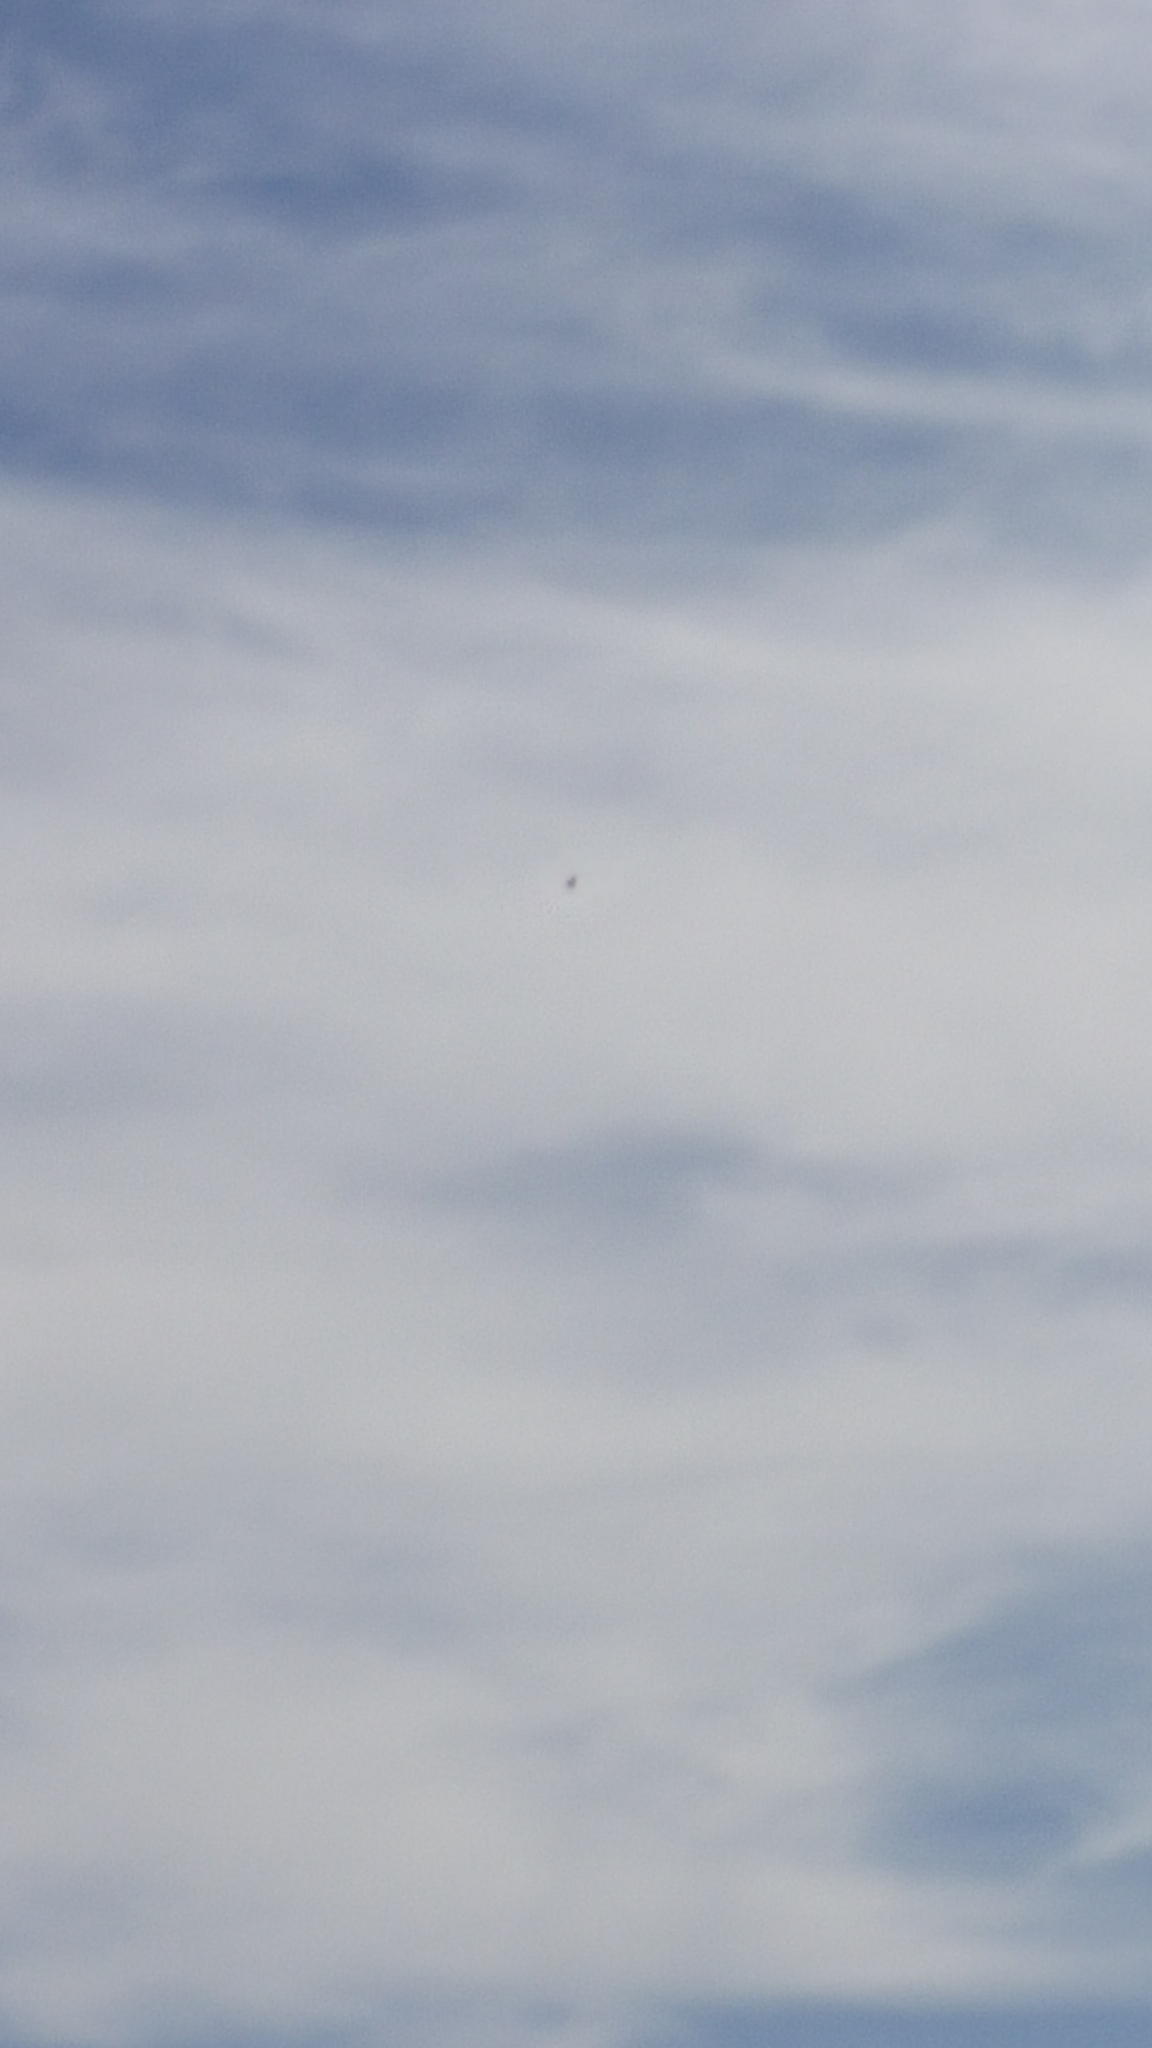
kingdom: Animalia
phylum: Chordata
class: Aves
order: Accipitriformes
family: Accipitridae
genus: Buteo
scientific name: Buteo solitarius
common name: Hawaiian hawk
